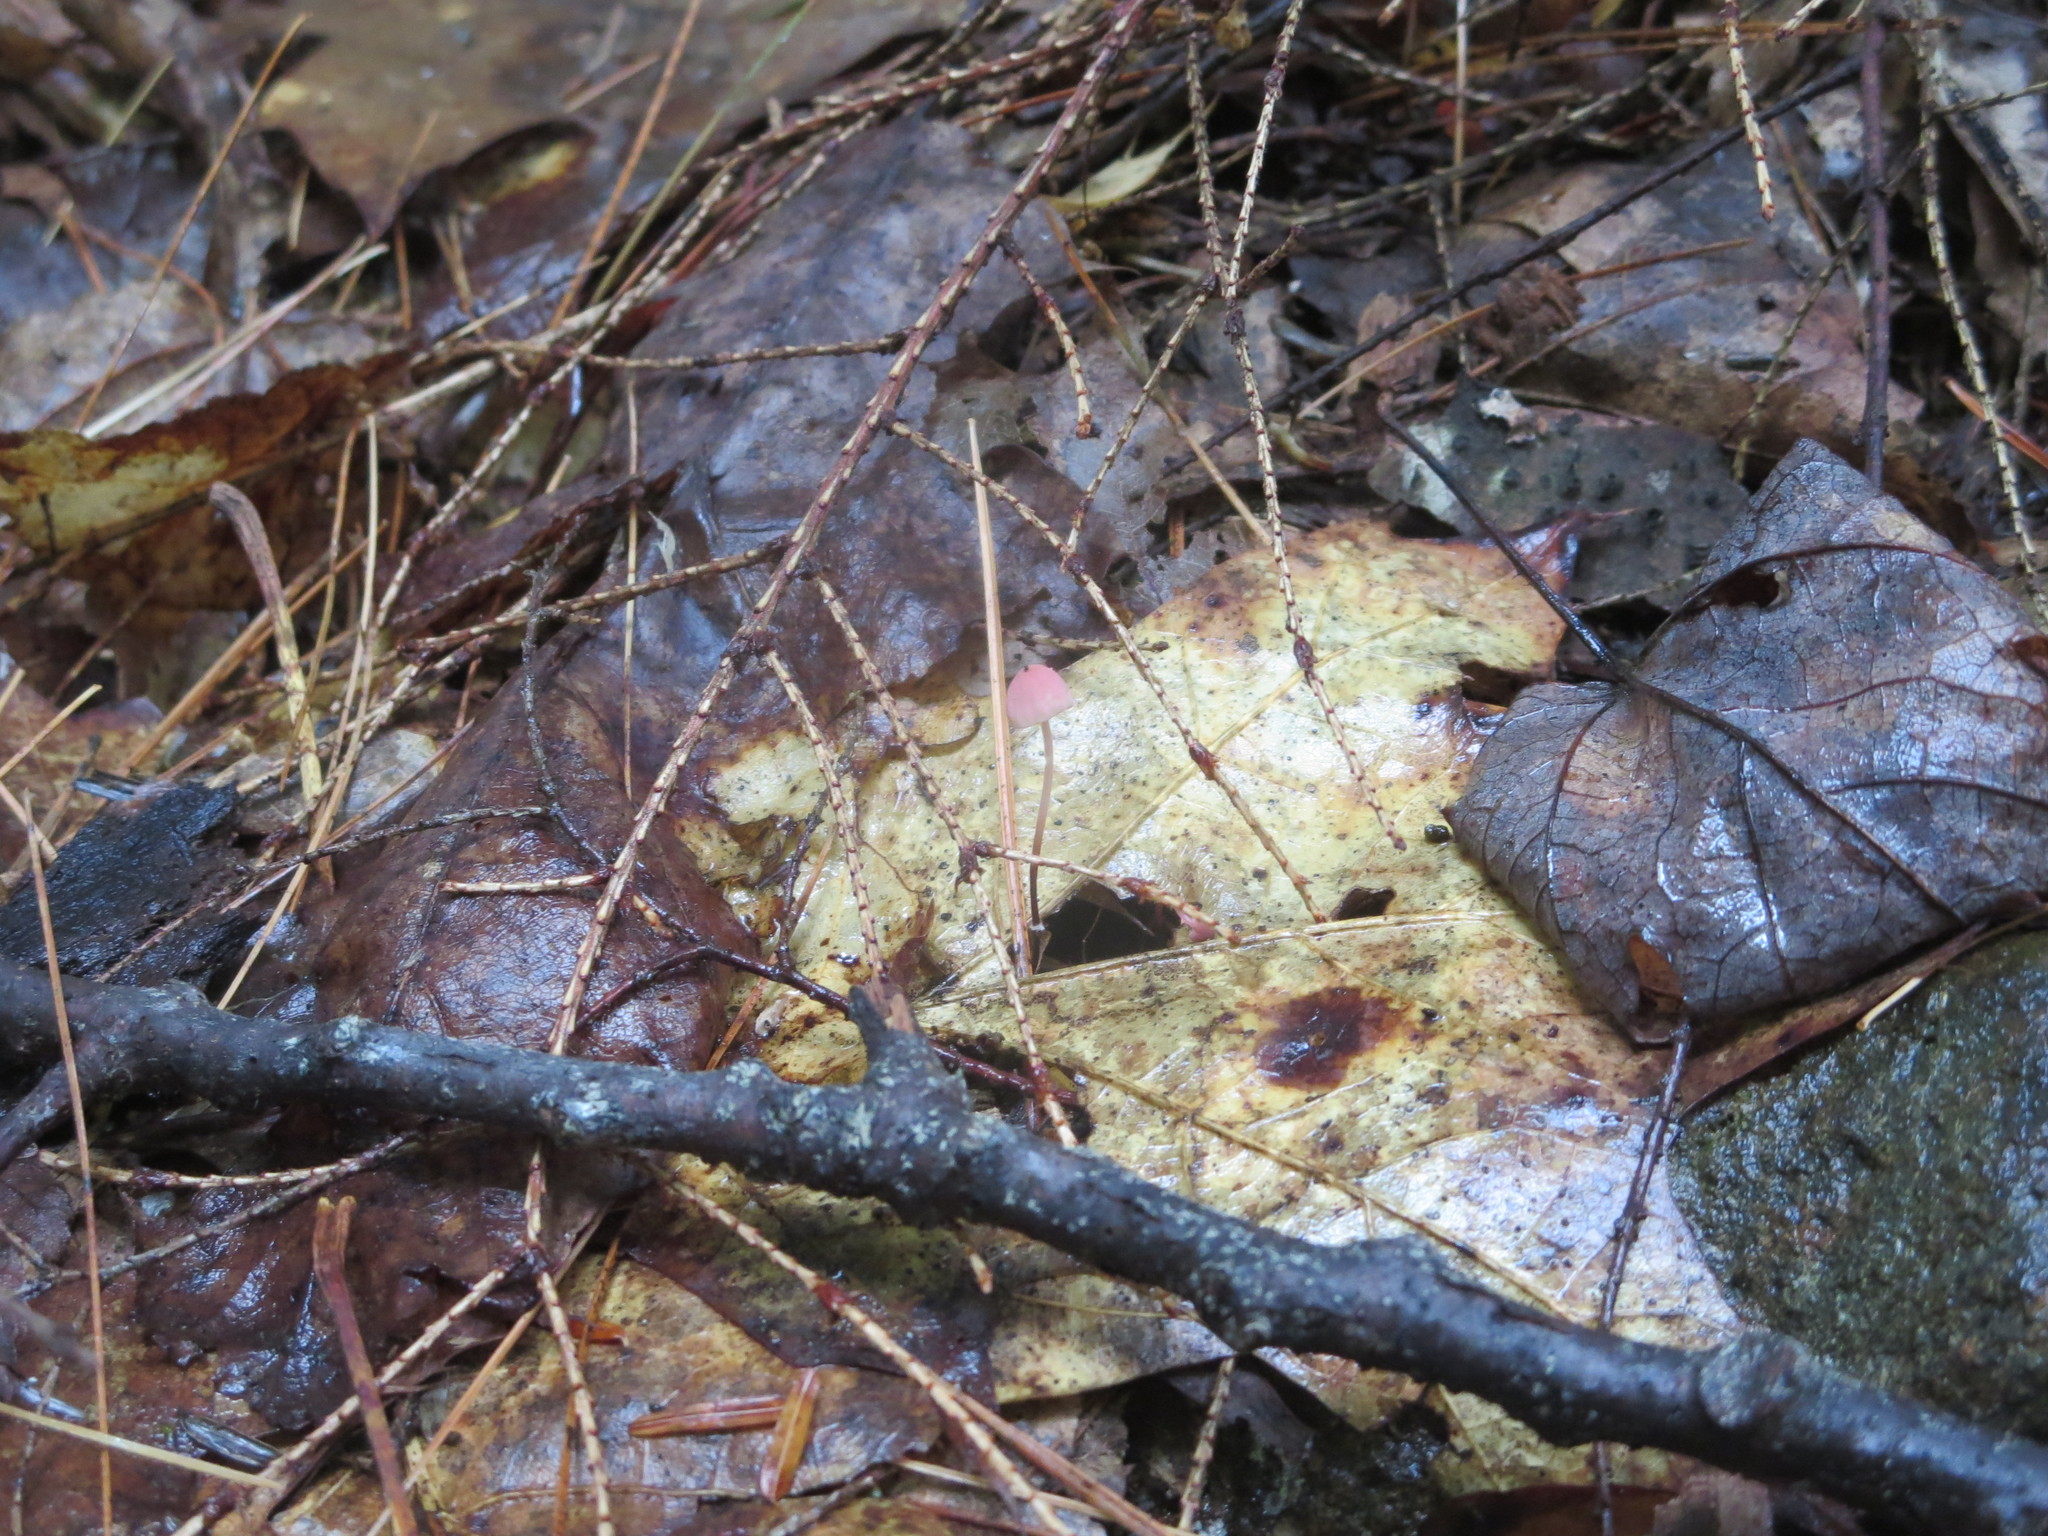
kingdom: Fungi
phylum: Basidiomycota
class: Agaricomycetes
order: Agaricales
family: Marasmiaceae
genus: Marasmius
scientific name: Marasmius pulcherripes
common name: Rosy parachute
